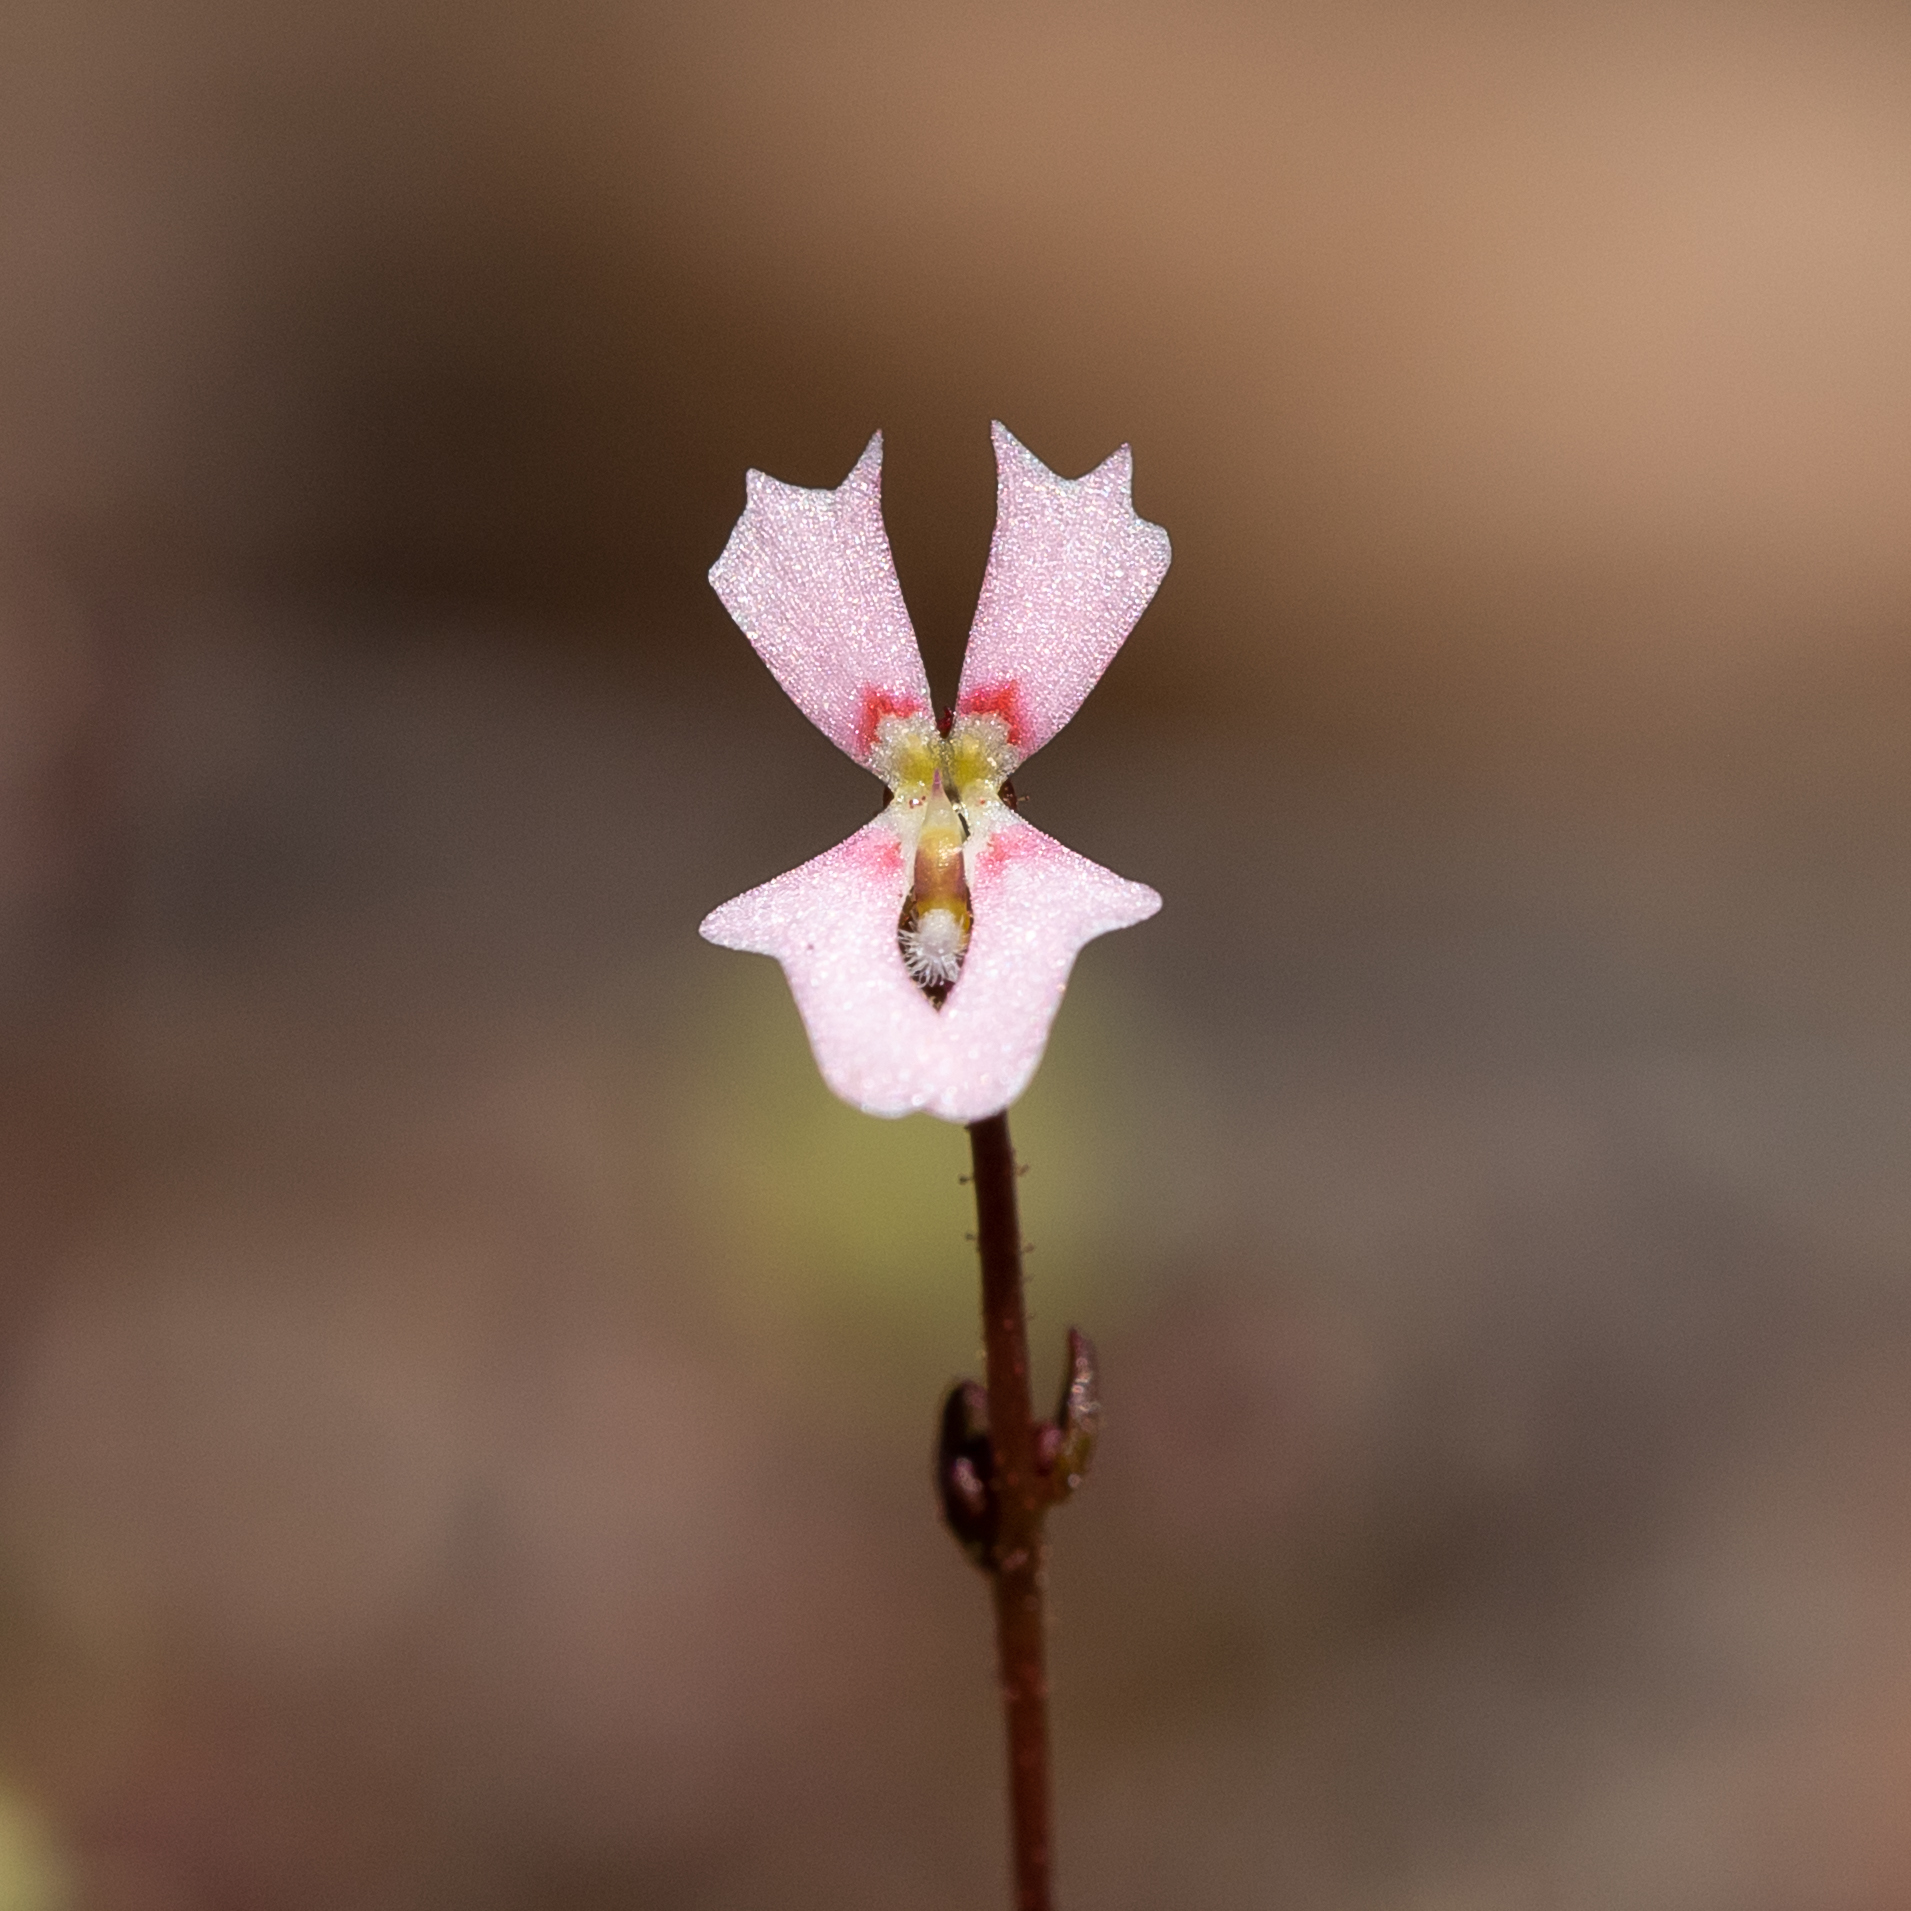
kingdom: Plantae
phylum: Tracheophyta
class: Magnoliopsida
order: Asterales
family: Stylidiaceae
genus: Stylidium
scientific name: Stylidium calcaratum
